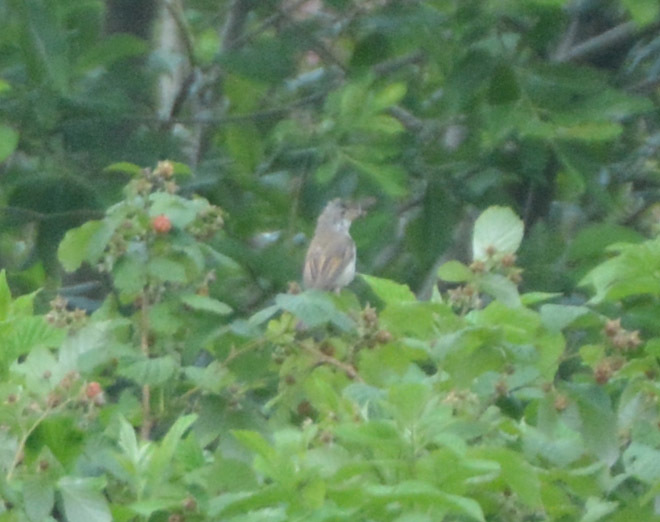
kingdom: Animalia
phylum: Chordata
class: Aves
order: Passeriformes
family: Sylviidae
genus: Sylvia
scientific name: Sylvia communis
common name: Common whitethroat
